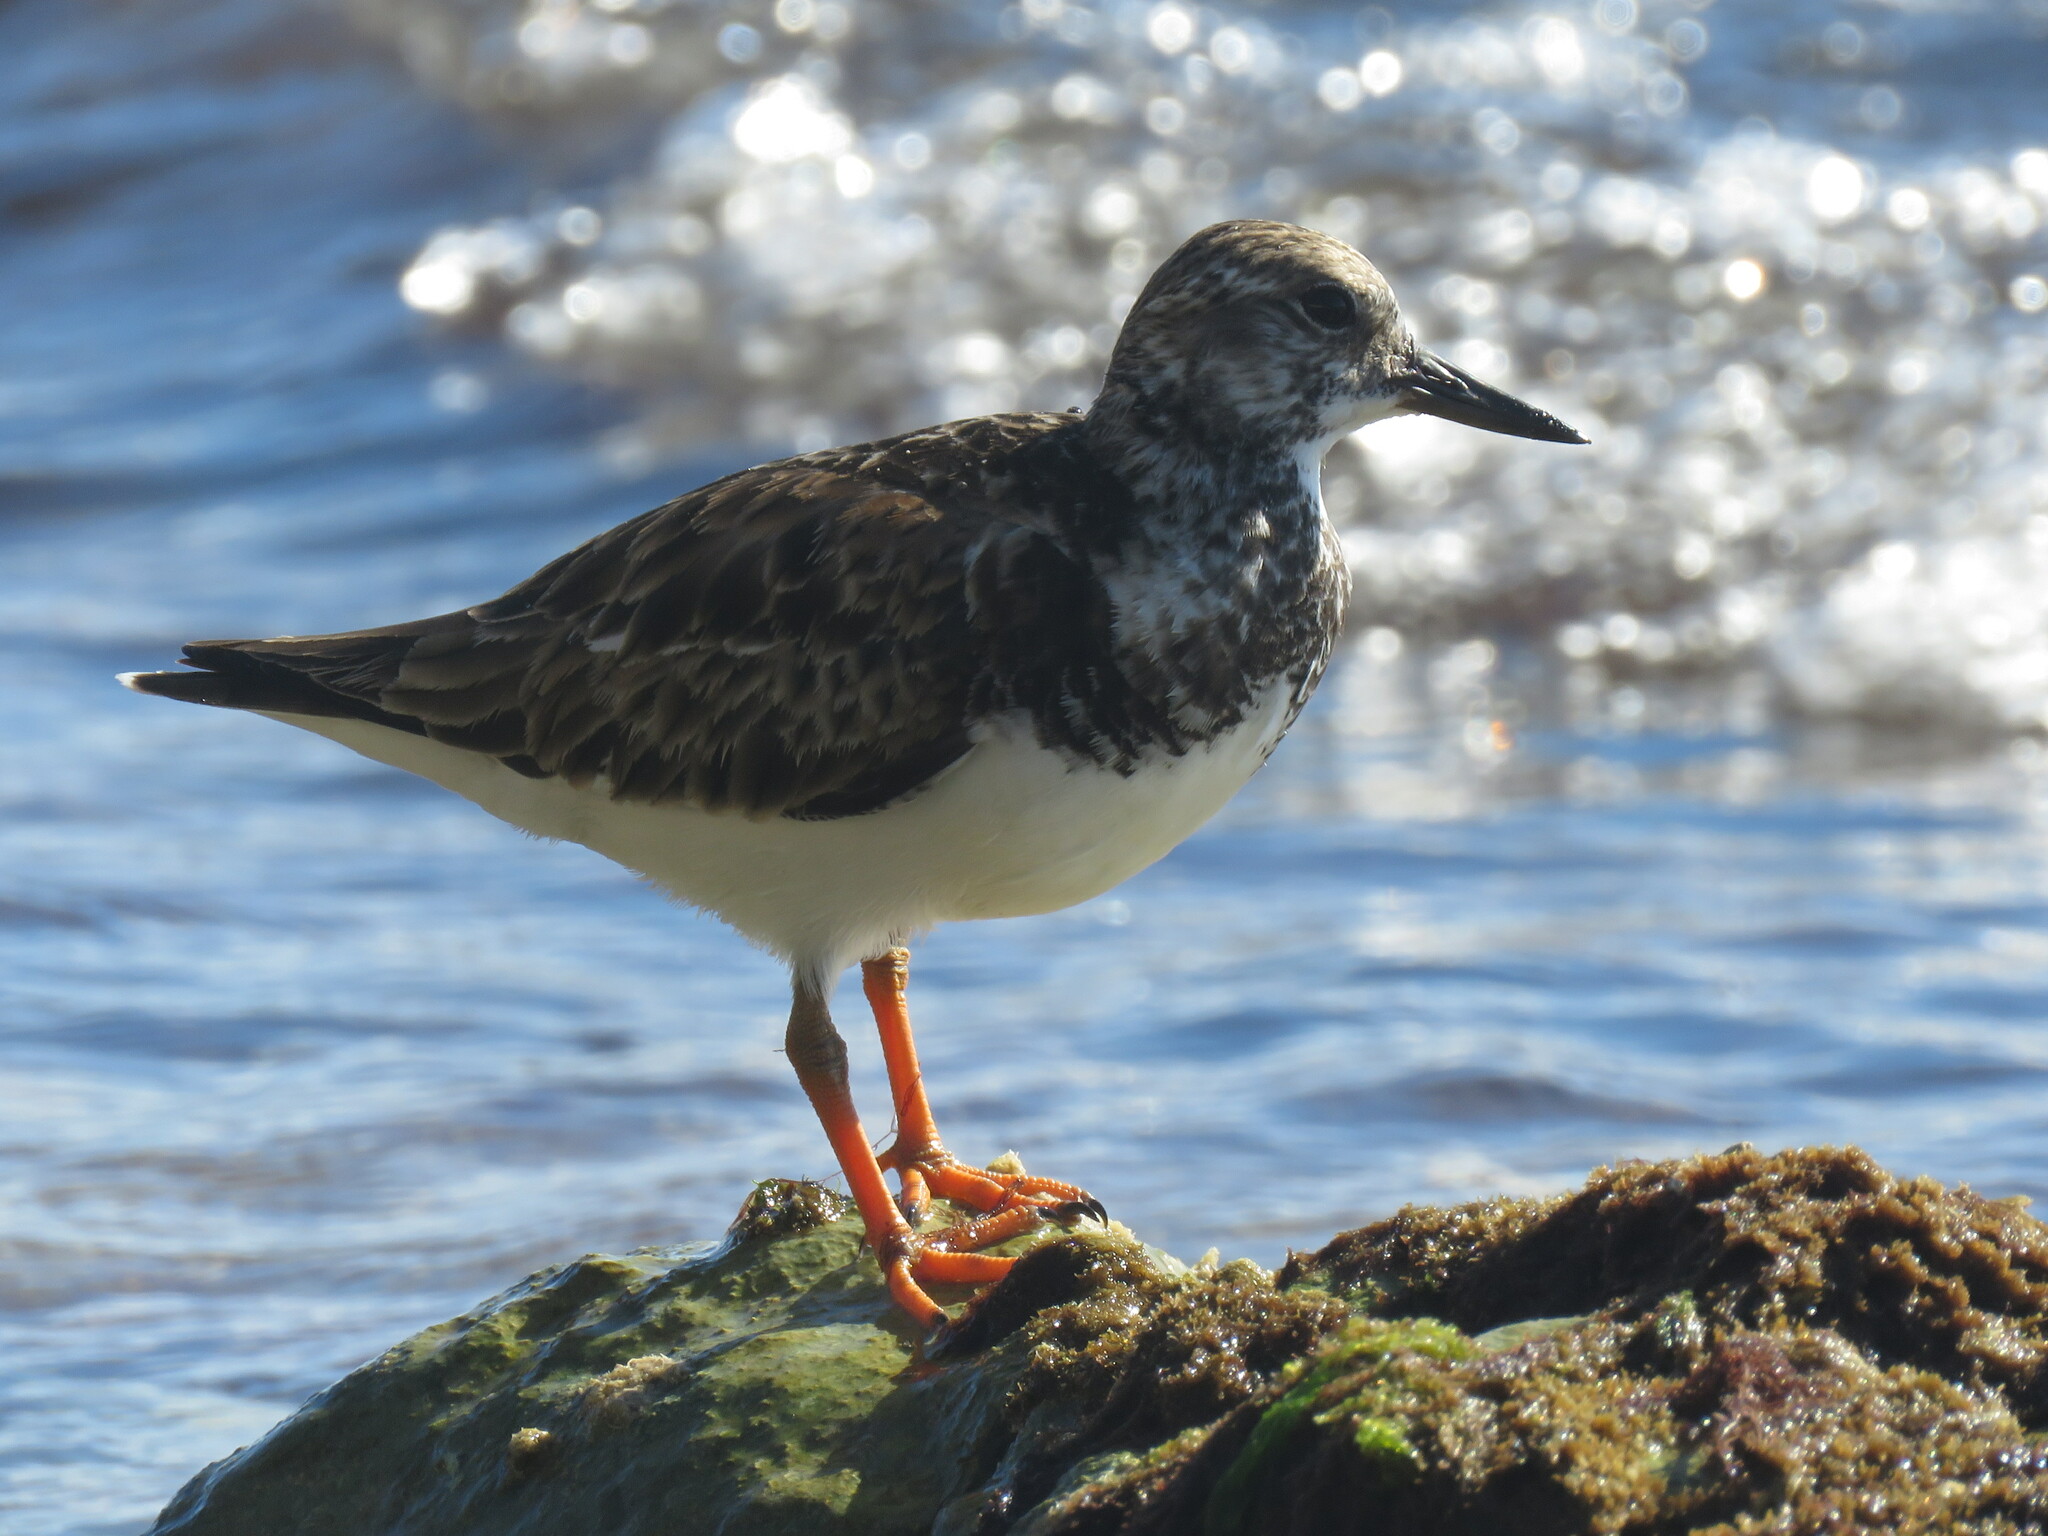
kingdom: Animalia
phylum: Chordata
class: Aves
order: Charadriiformes
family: Scolopacidae
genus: Arenaria
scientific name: Arenaria interpres
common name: Ruddy turnstone
